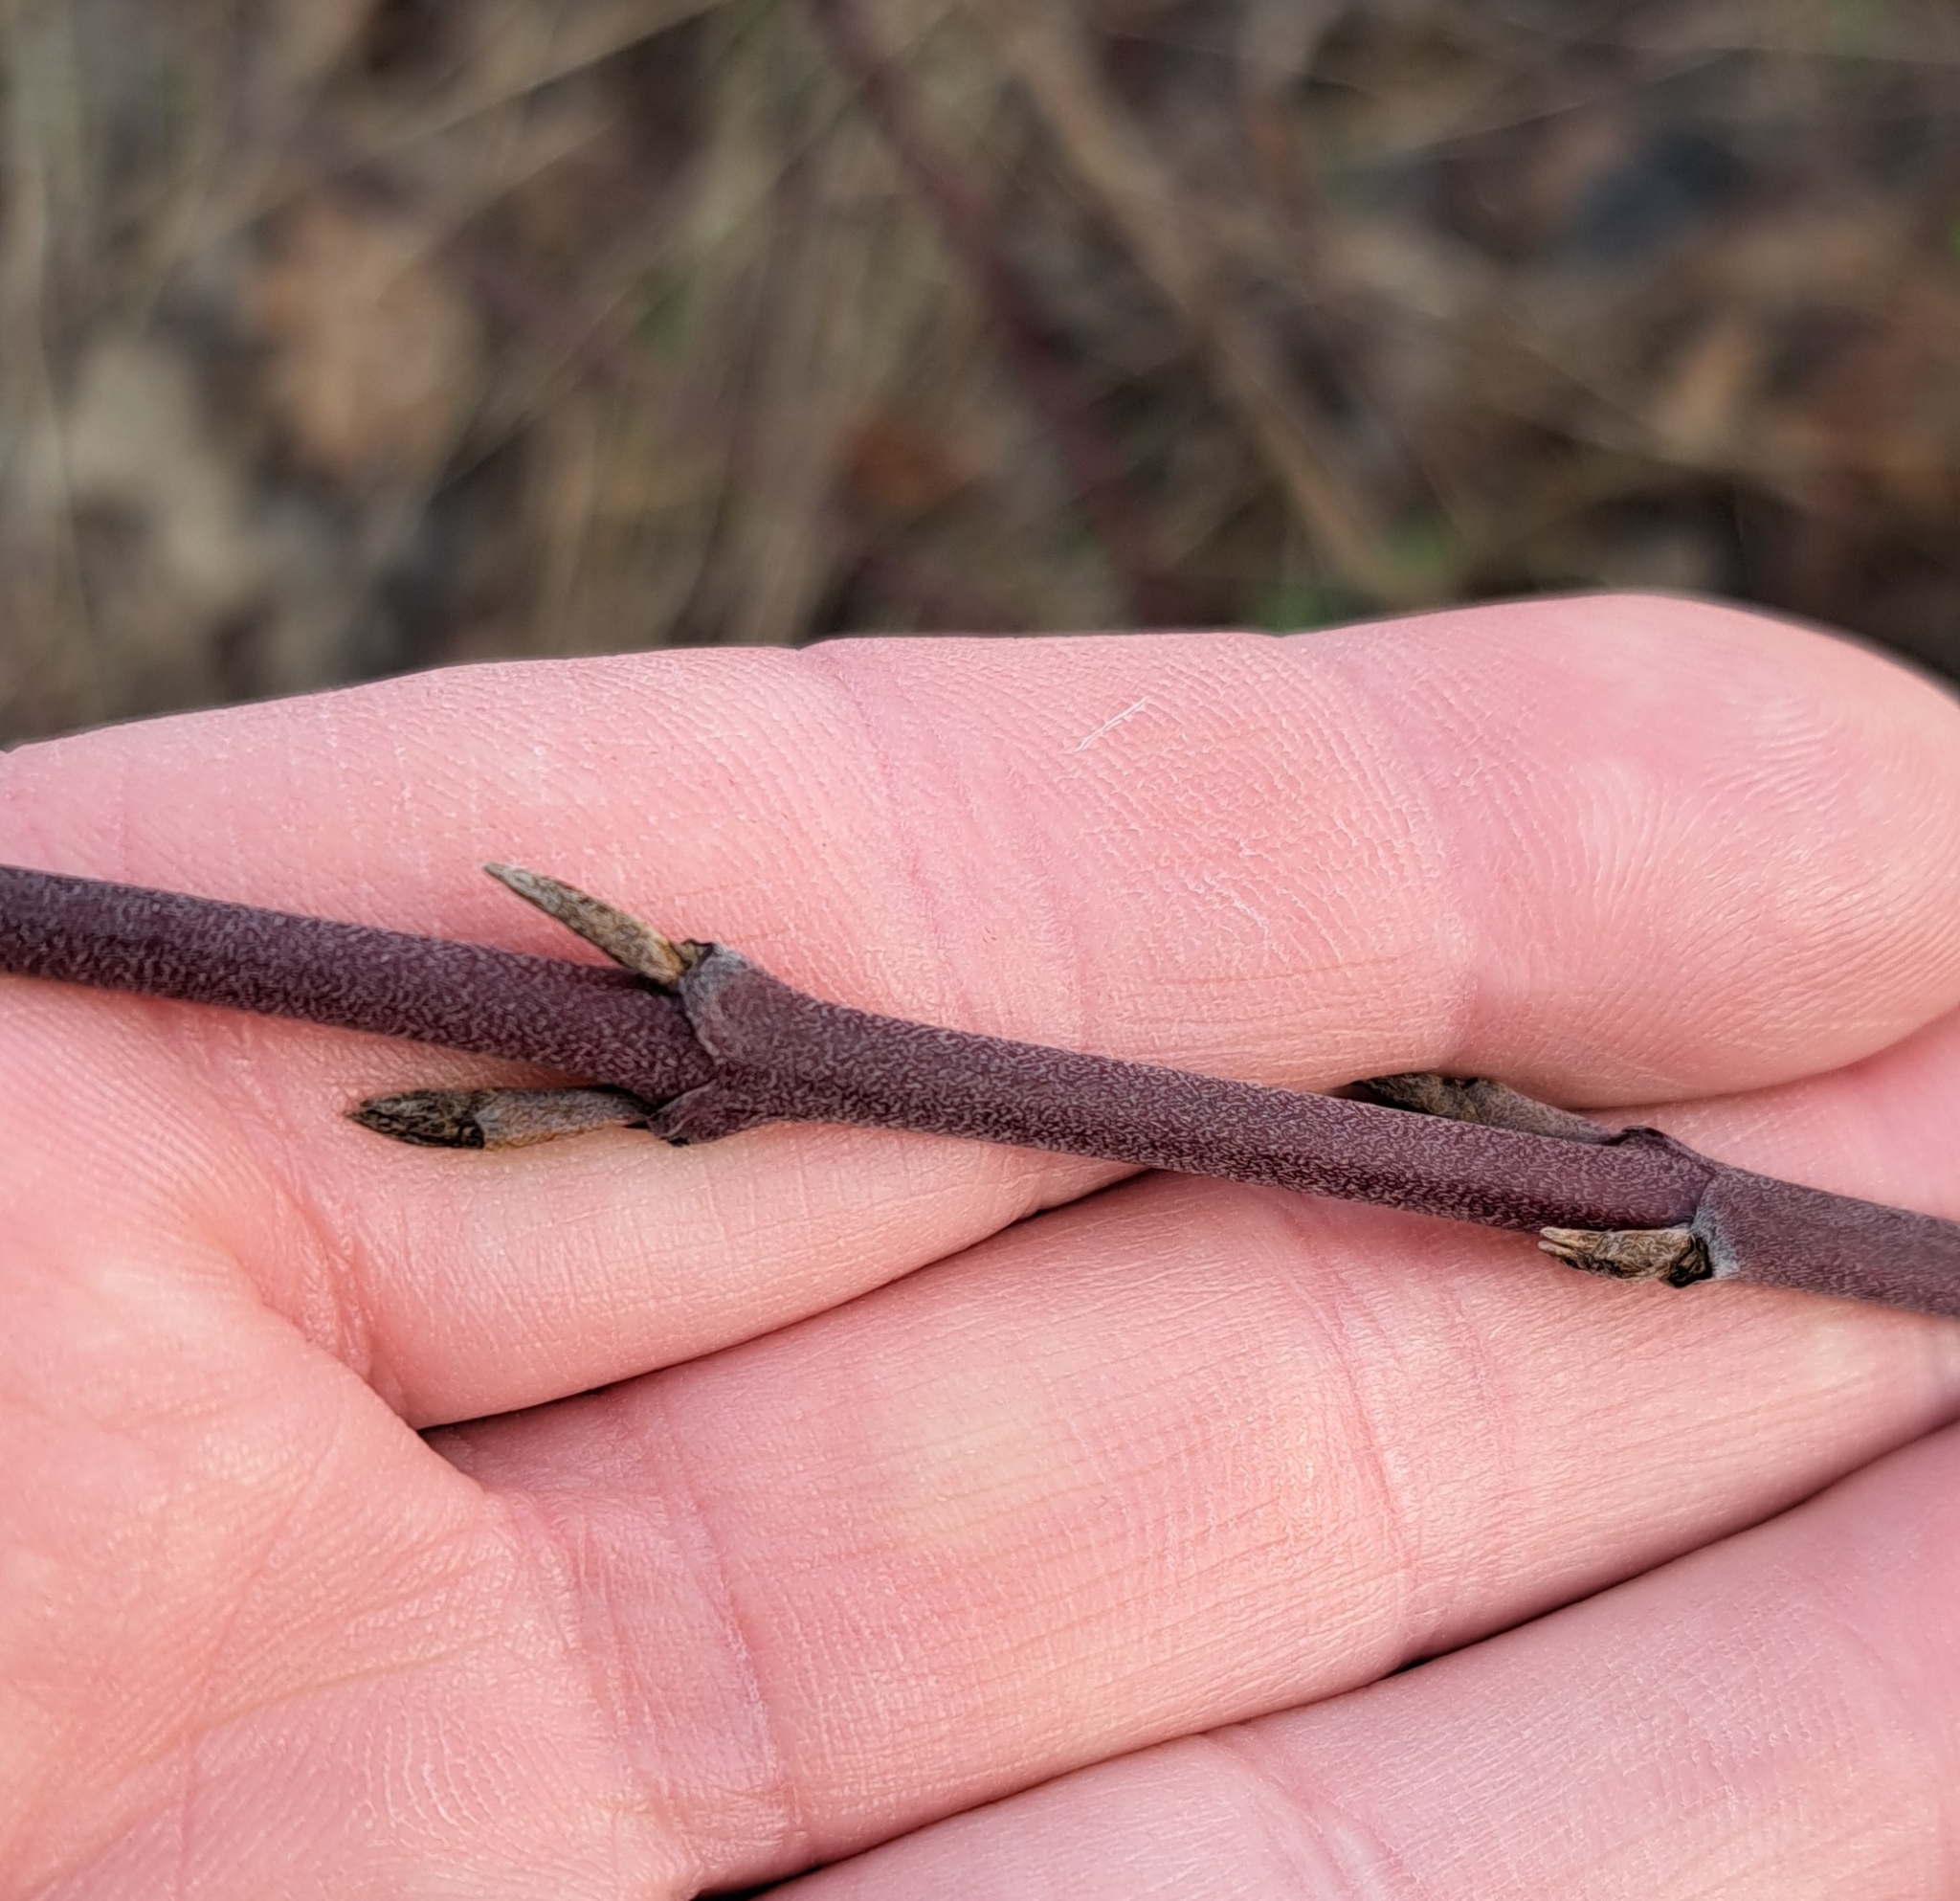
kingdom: Plantae
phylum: Tracheophyta
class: Magnoliopsida
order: Cornales
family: Cornaceae
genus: Cornus
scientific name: Cornus sanguinea
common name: Dogwood
